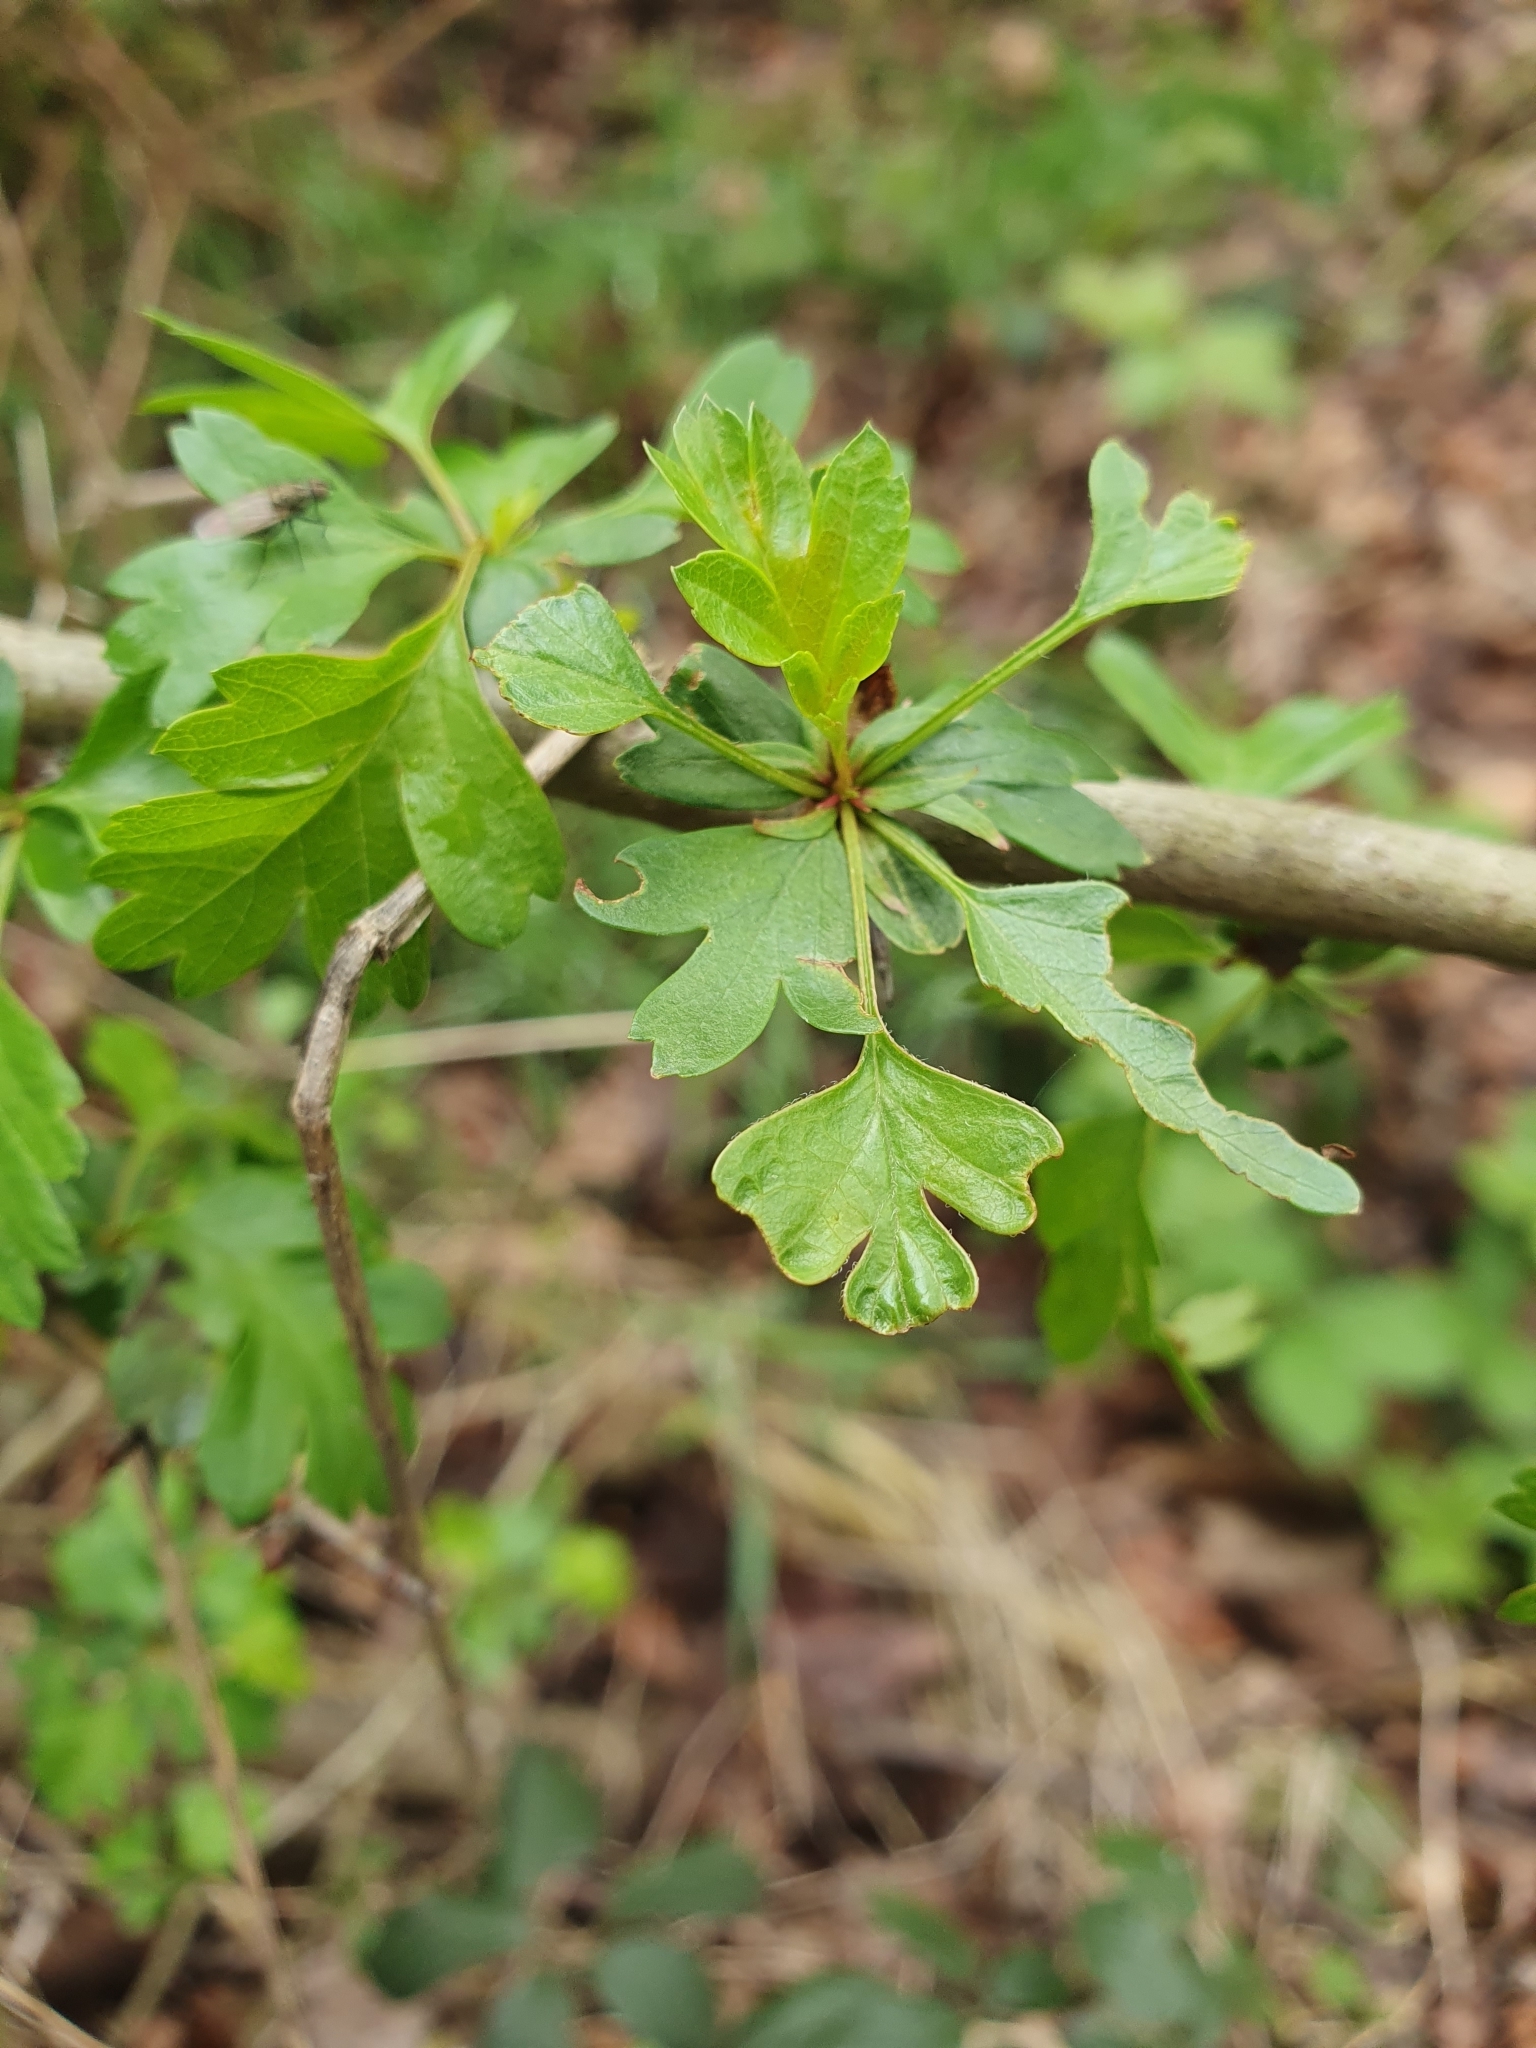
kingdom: Plantae
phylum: Tracheophyta
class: Magnoliopsida
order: Rosales
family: Rosaceae
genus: Crataegus
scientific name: Crataegus monogyna
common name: Hawthorn
